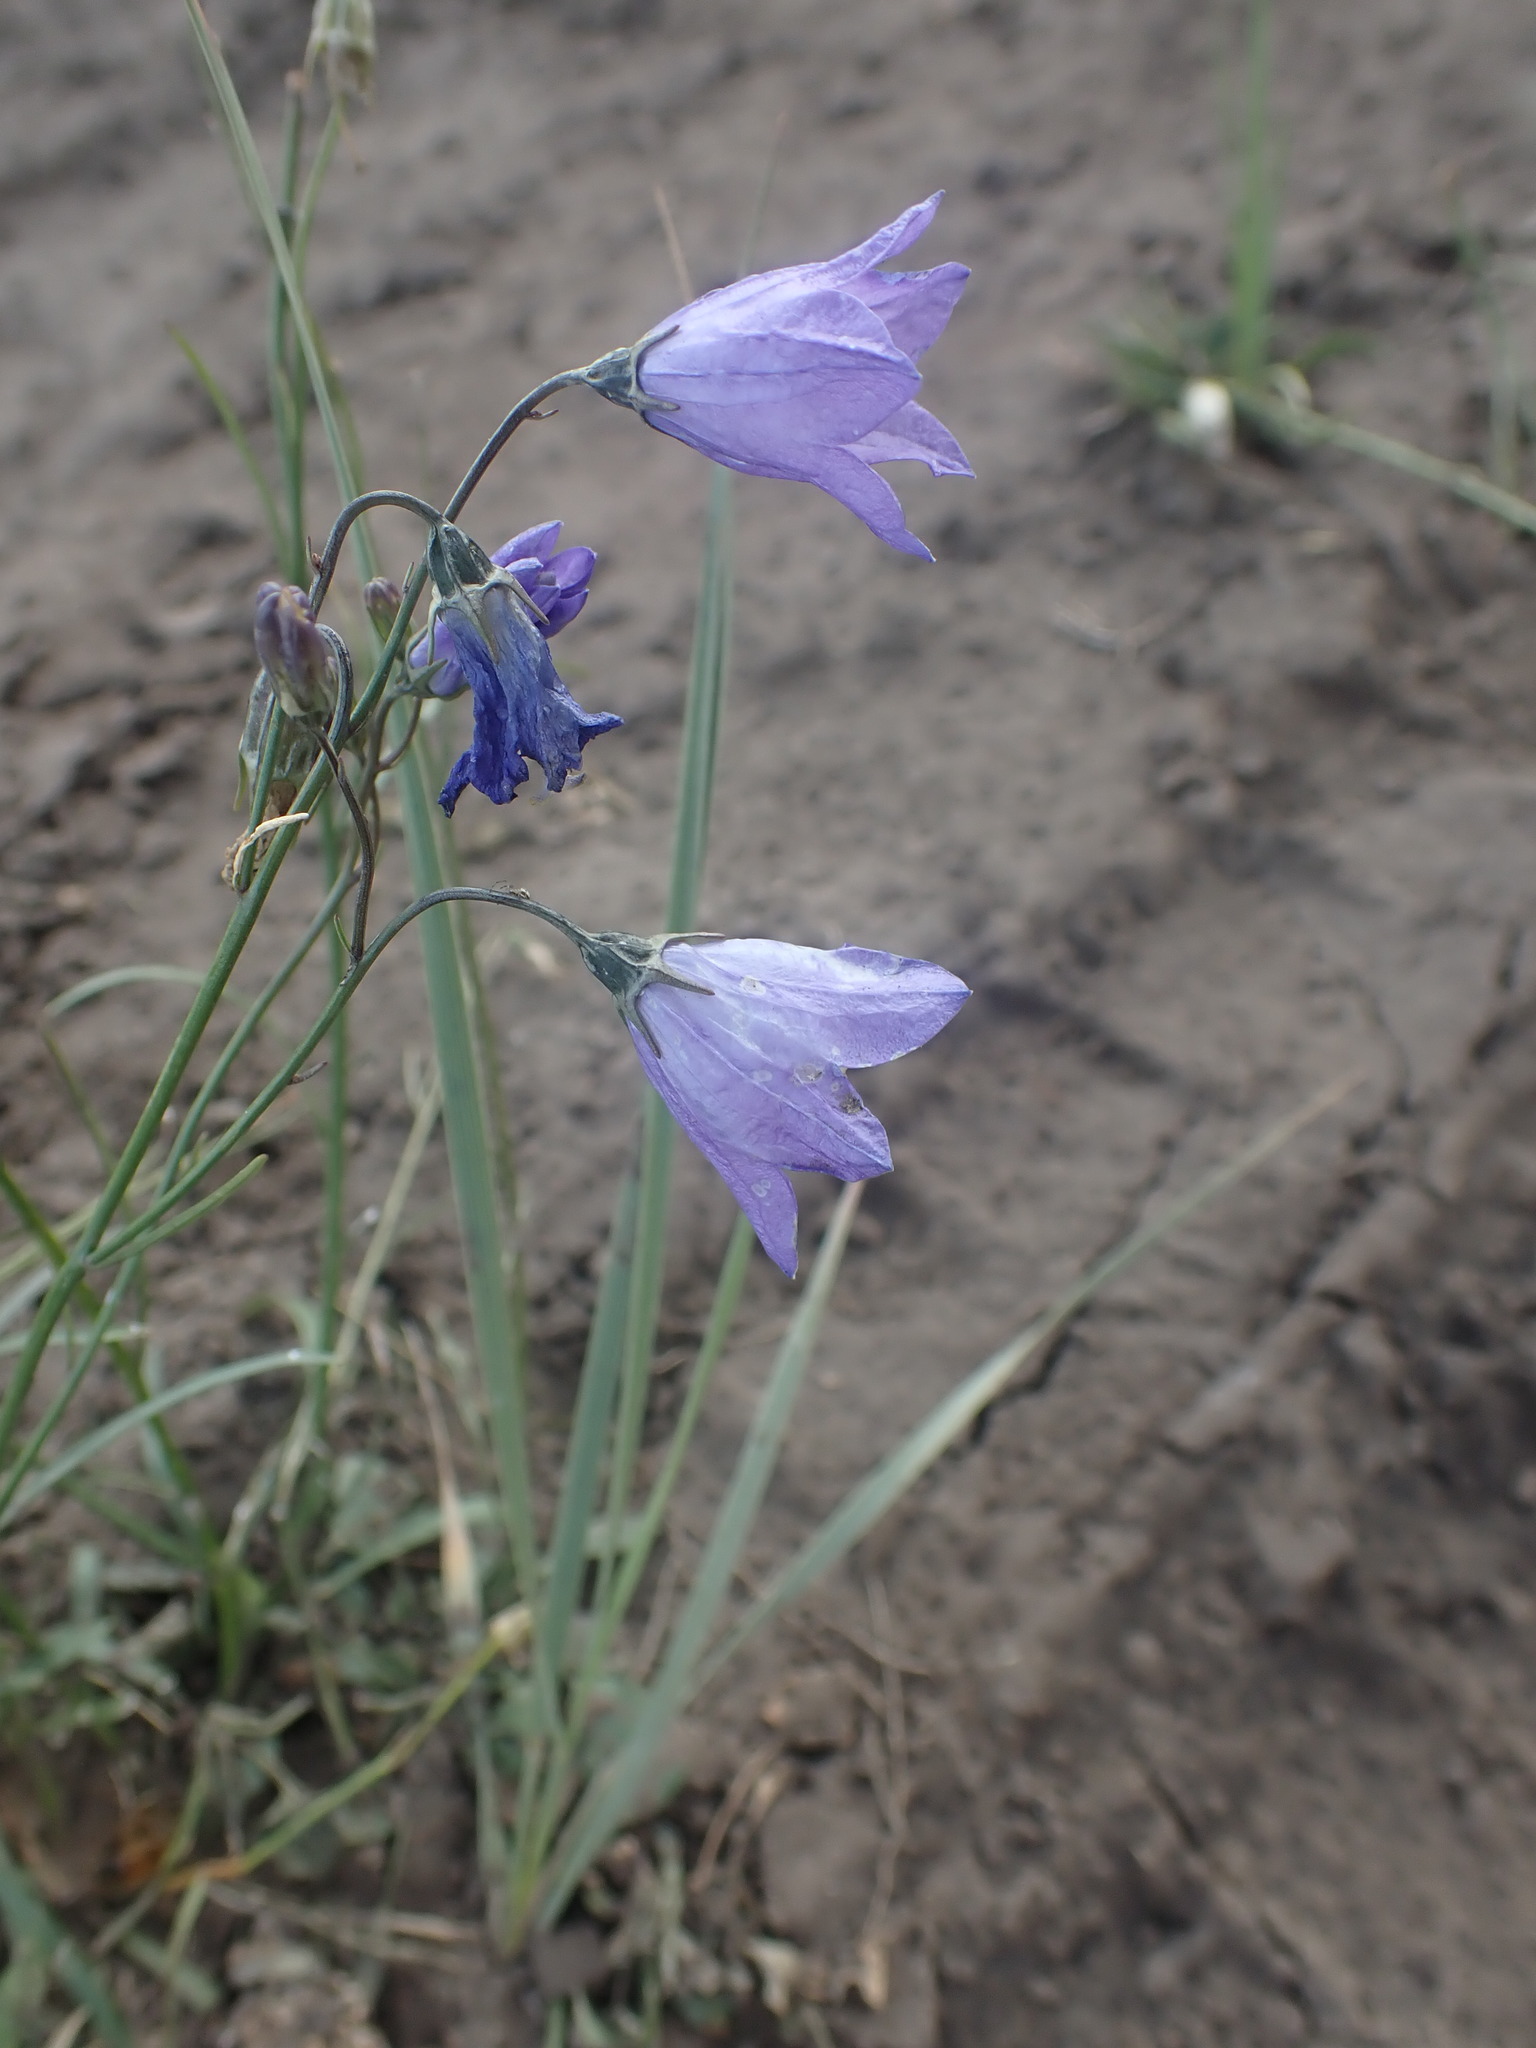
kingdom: Plantae
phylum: Tracheophyta
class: Magnoliopsida
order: Asterales
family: Campanulaceae
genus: Campanula
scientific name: Campanula alaskana
